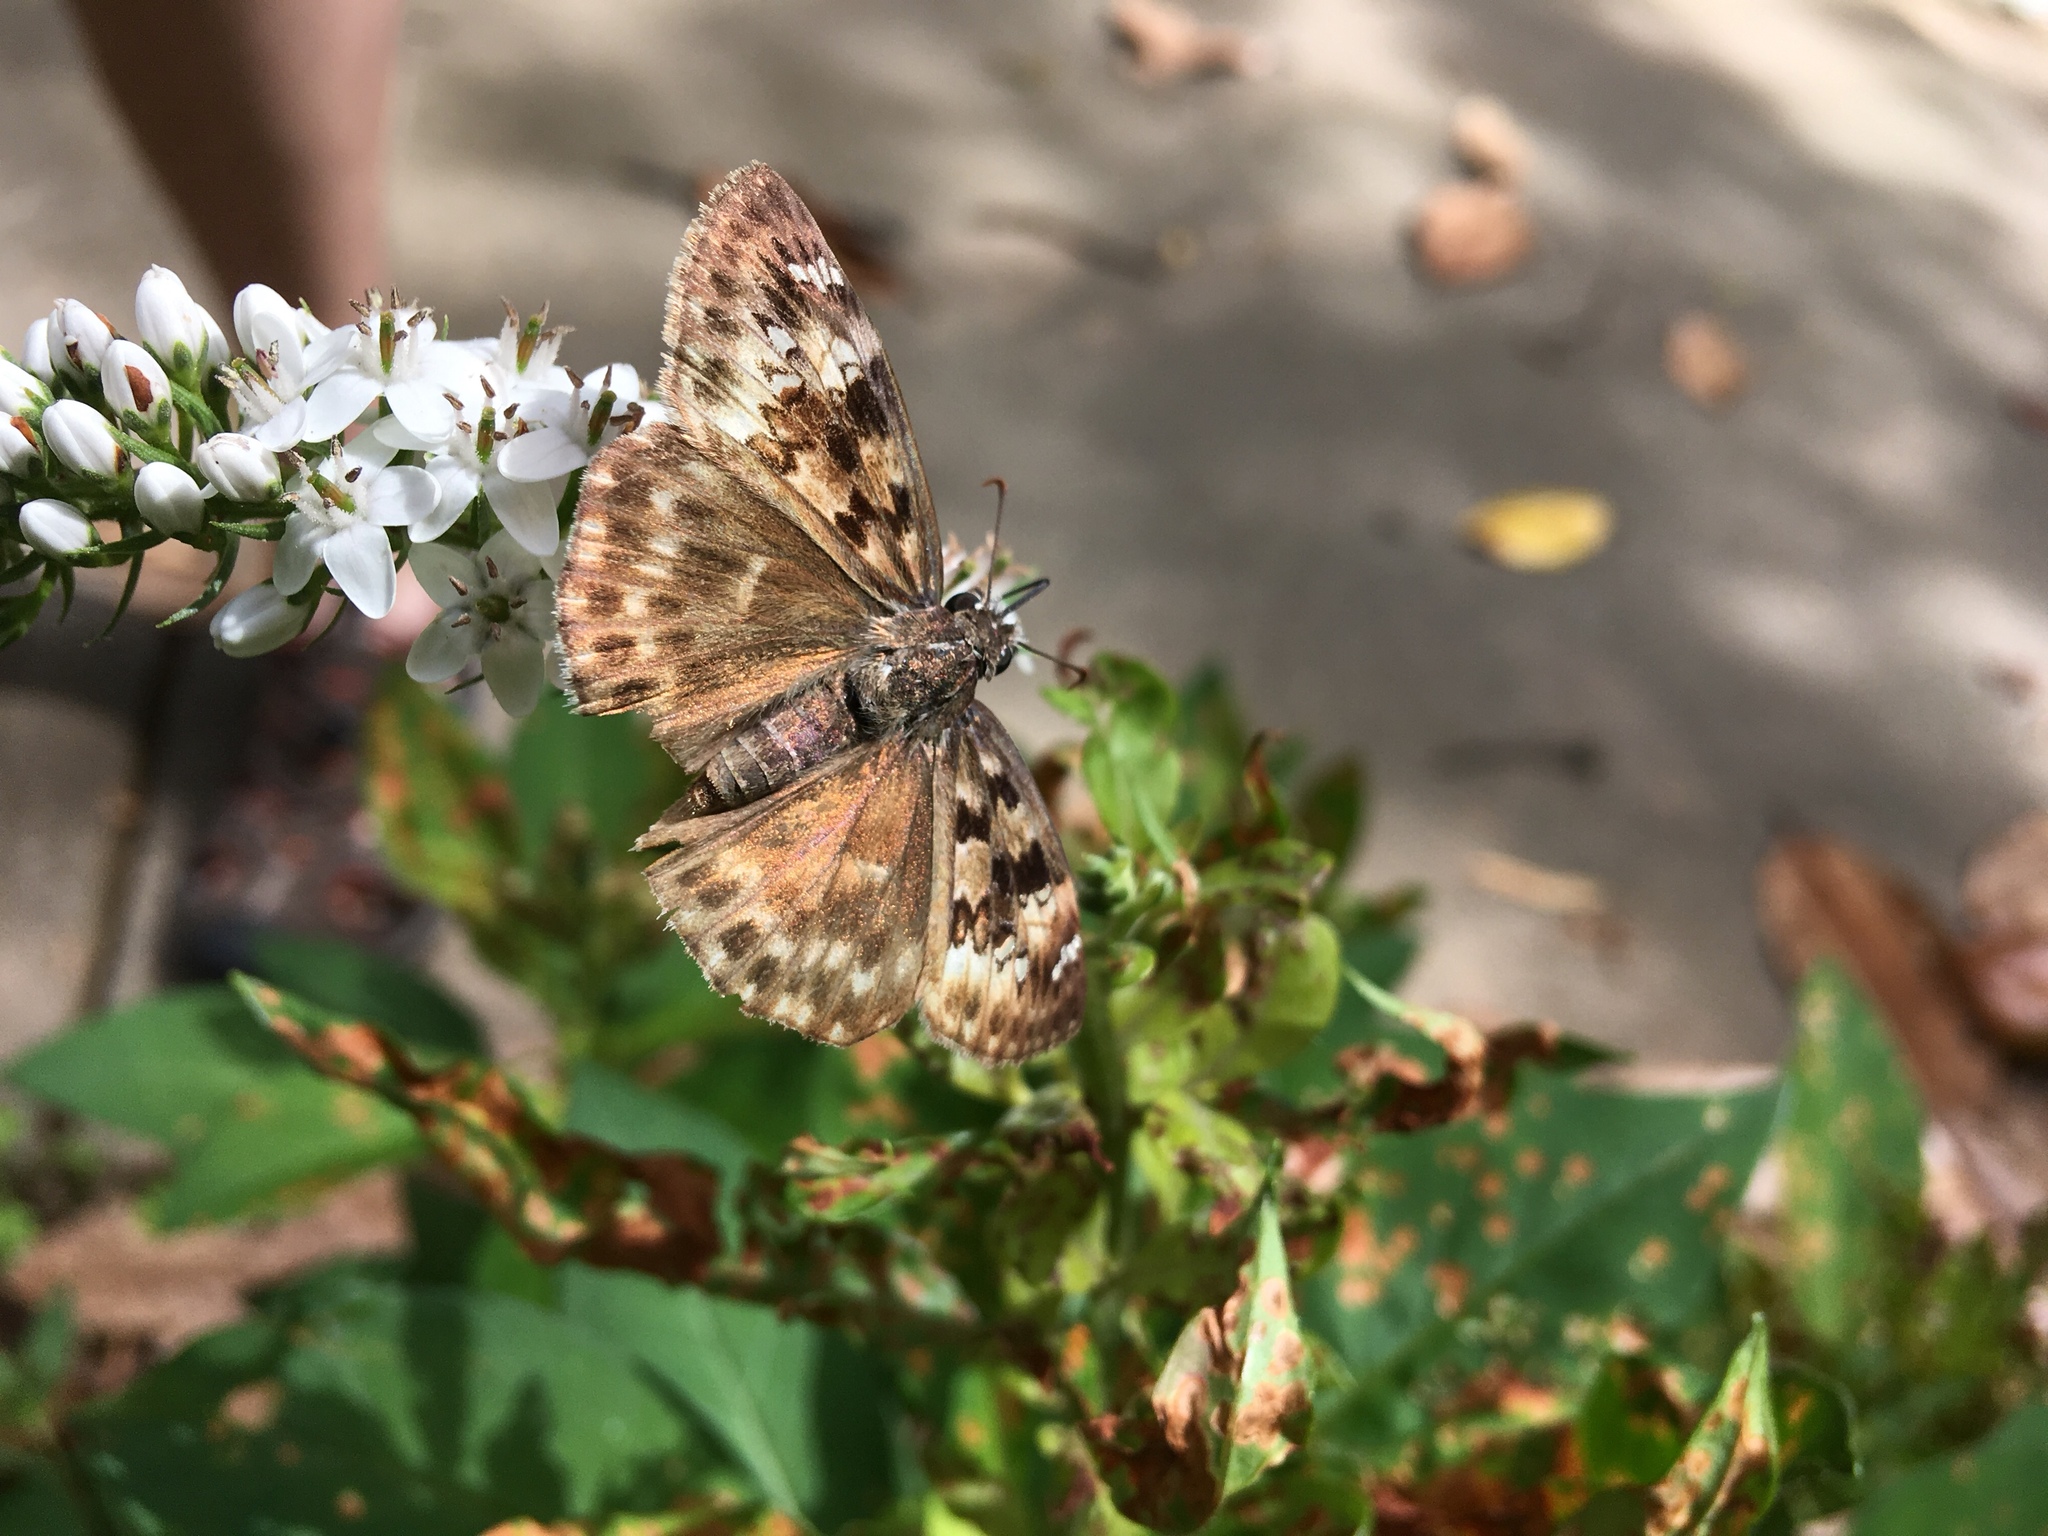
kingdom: Animalia
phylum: Arthropoda
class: Insecta
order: Lepidoptera
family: Hesperiidae
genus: Erynnis
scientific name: Erynnis horatius
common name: Horace's duskywing
